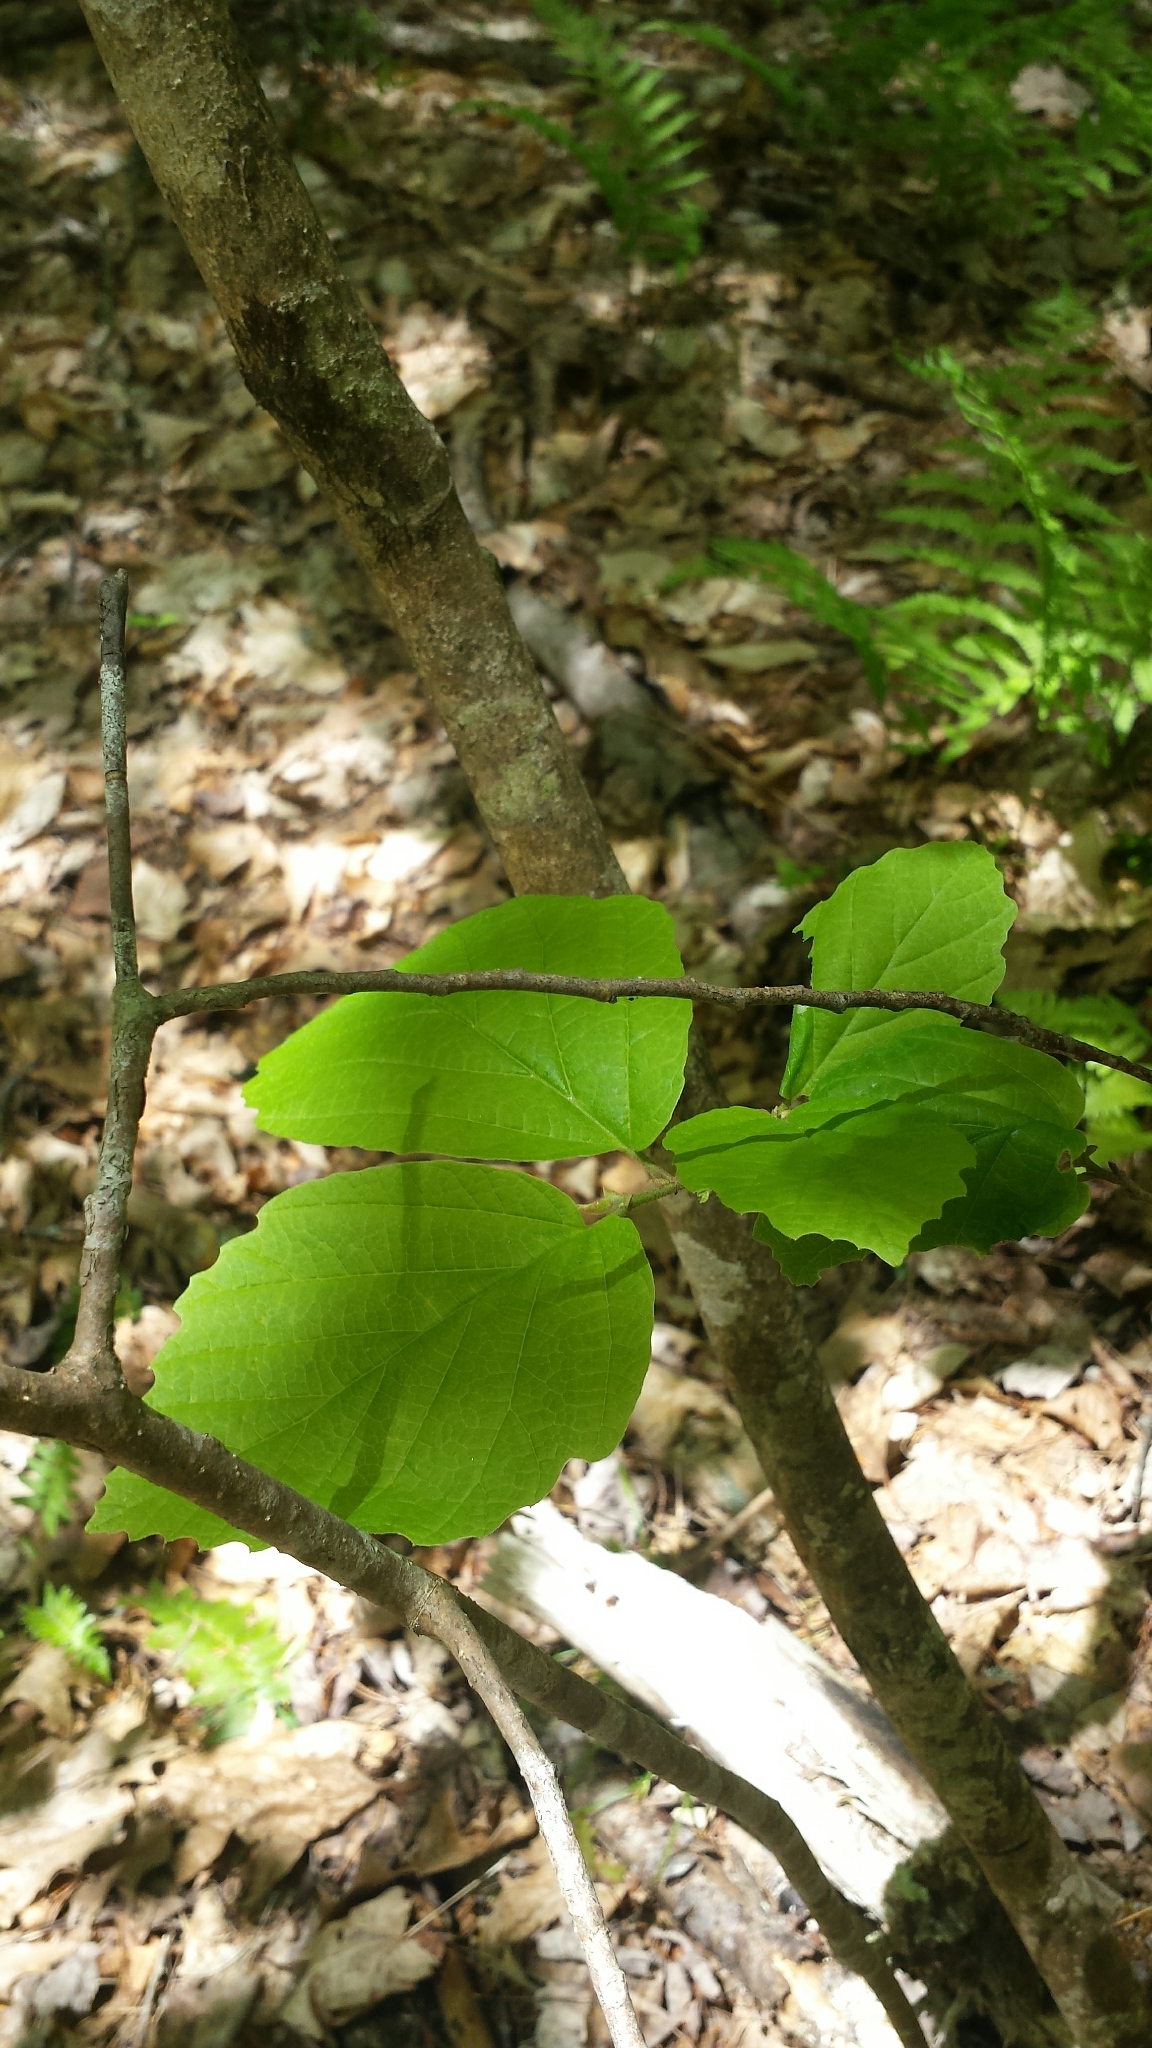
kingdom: Plantae
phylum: Tracheophyta
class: Magnoliopsida
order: Saxifragales
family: Hamamelidaceae
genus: Hamamelis
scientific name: Hamamelis virginiana
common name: Witch-hazel
